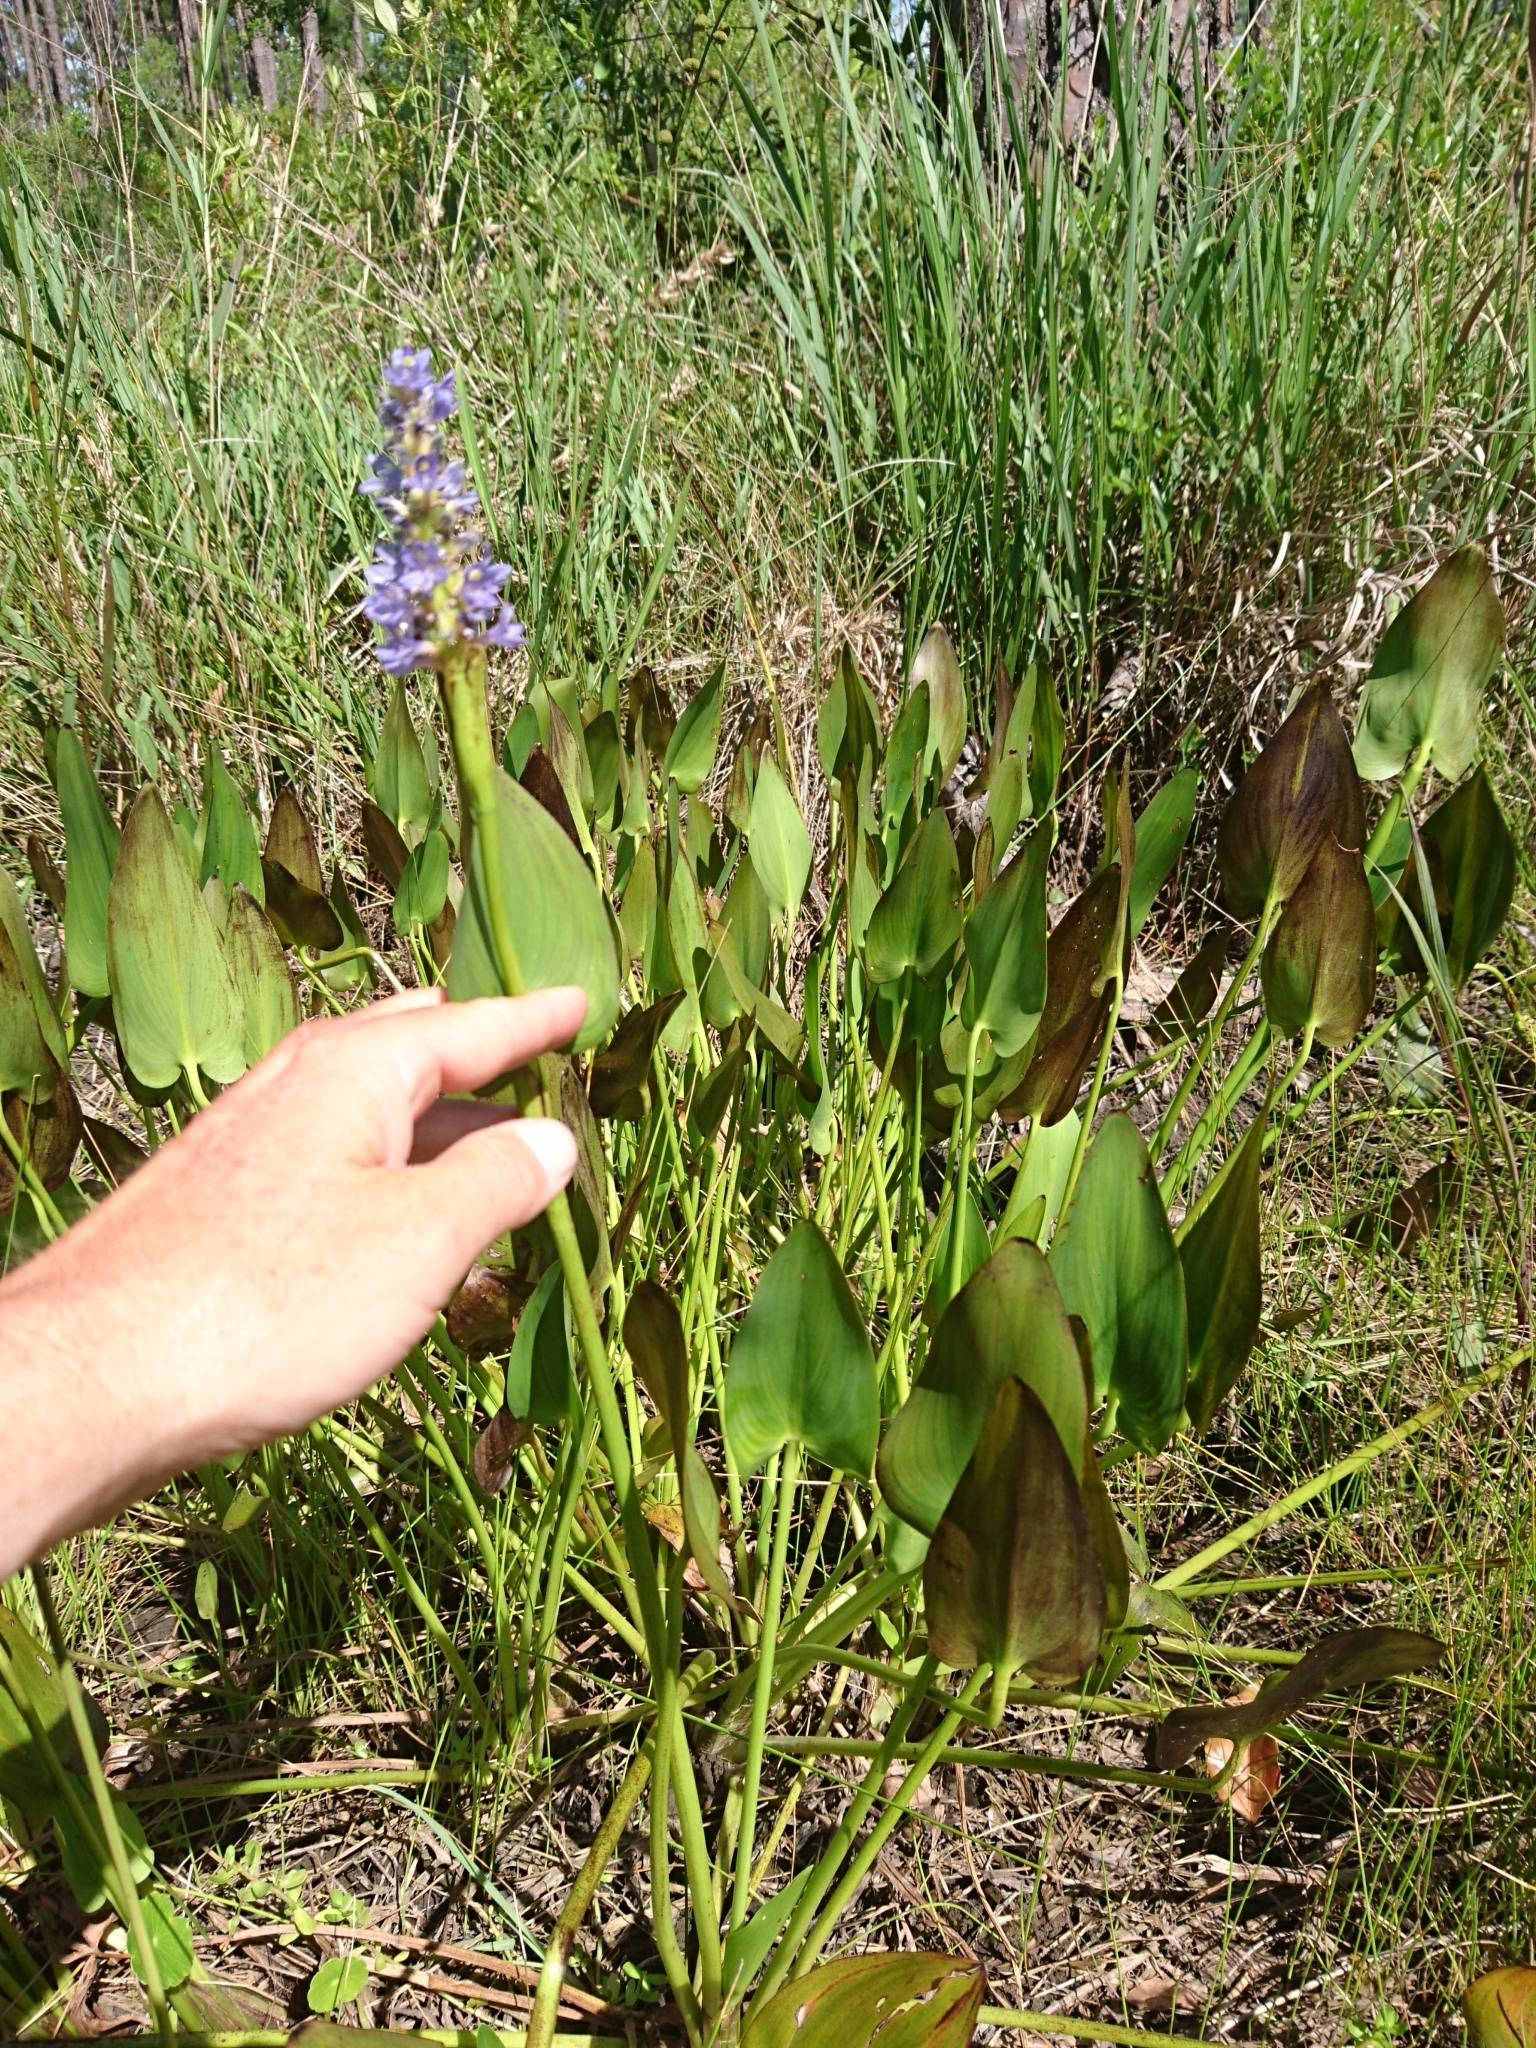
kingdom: Plantae
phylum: Tracheophyta
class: Liliopsida
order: Commelinales
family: Pontederiaceae
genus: Pontederia
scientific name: Pontederia cordata
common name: Pickerelweed
